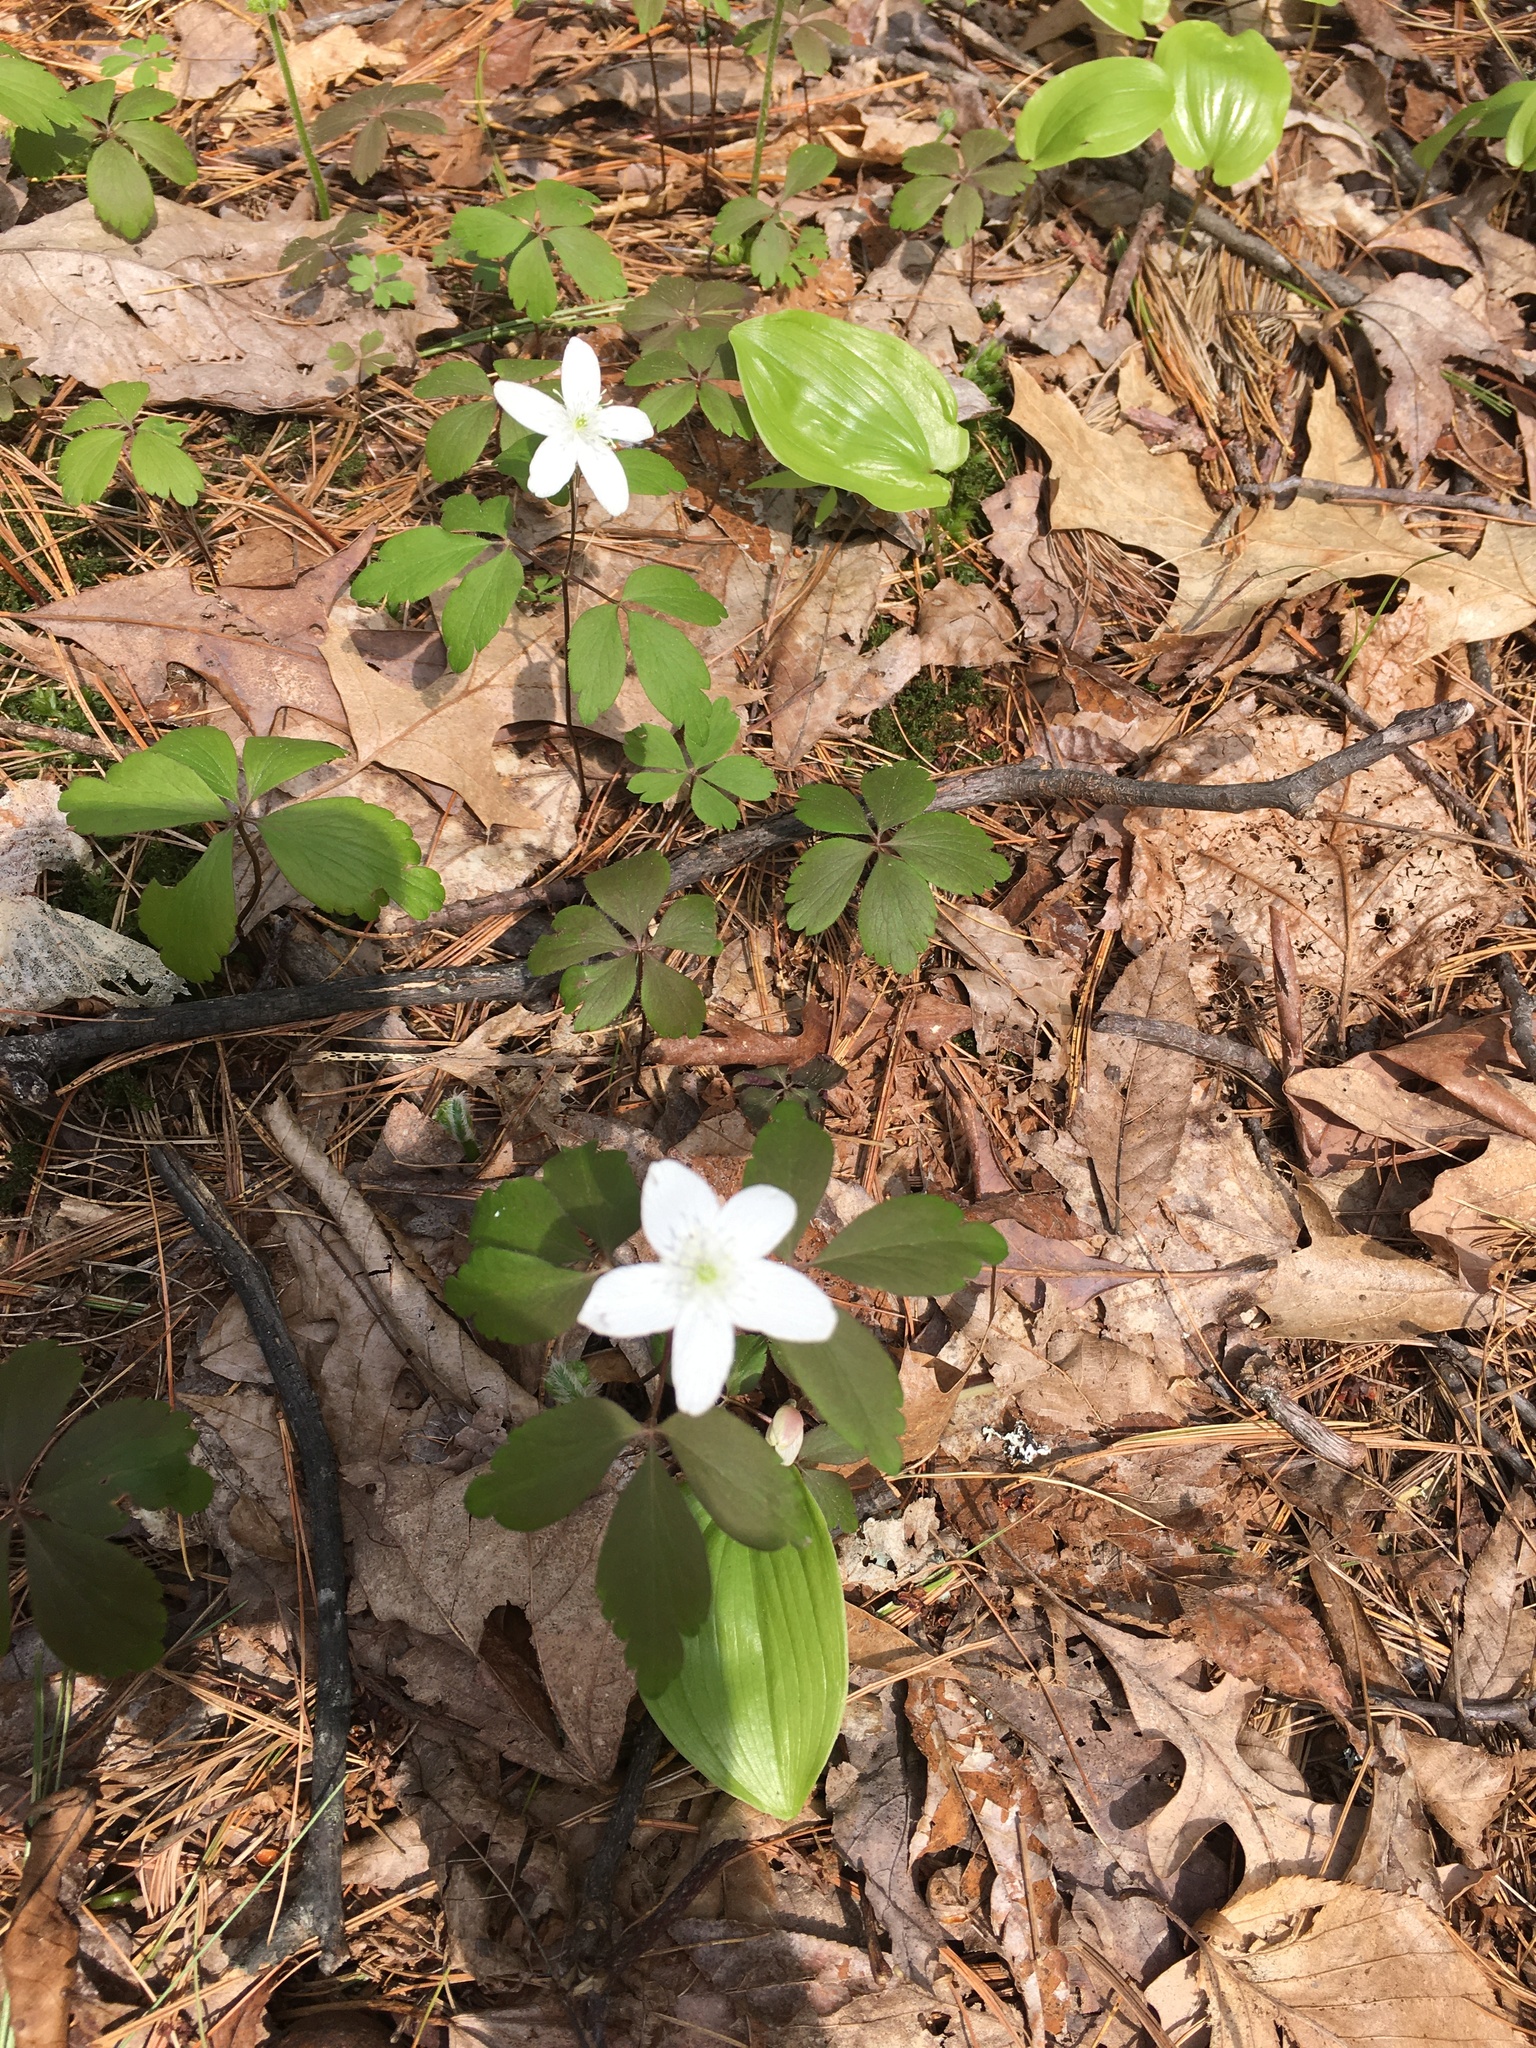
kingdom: Plantae
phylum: Tracheophyta
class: Magnoliopsida
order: Ranunculales
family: Ranunculaceae
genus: Anemone
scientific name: Anemone quinquefolia
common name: Wood anemone
